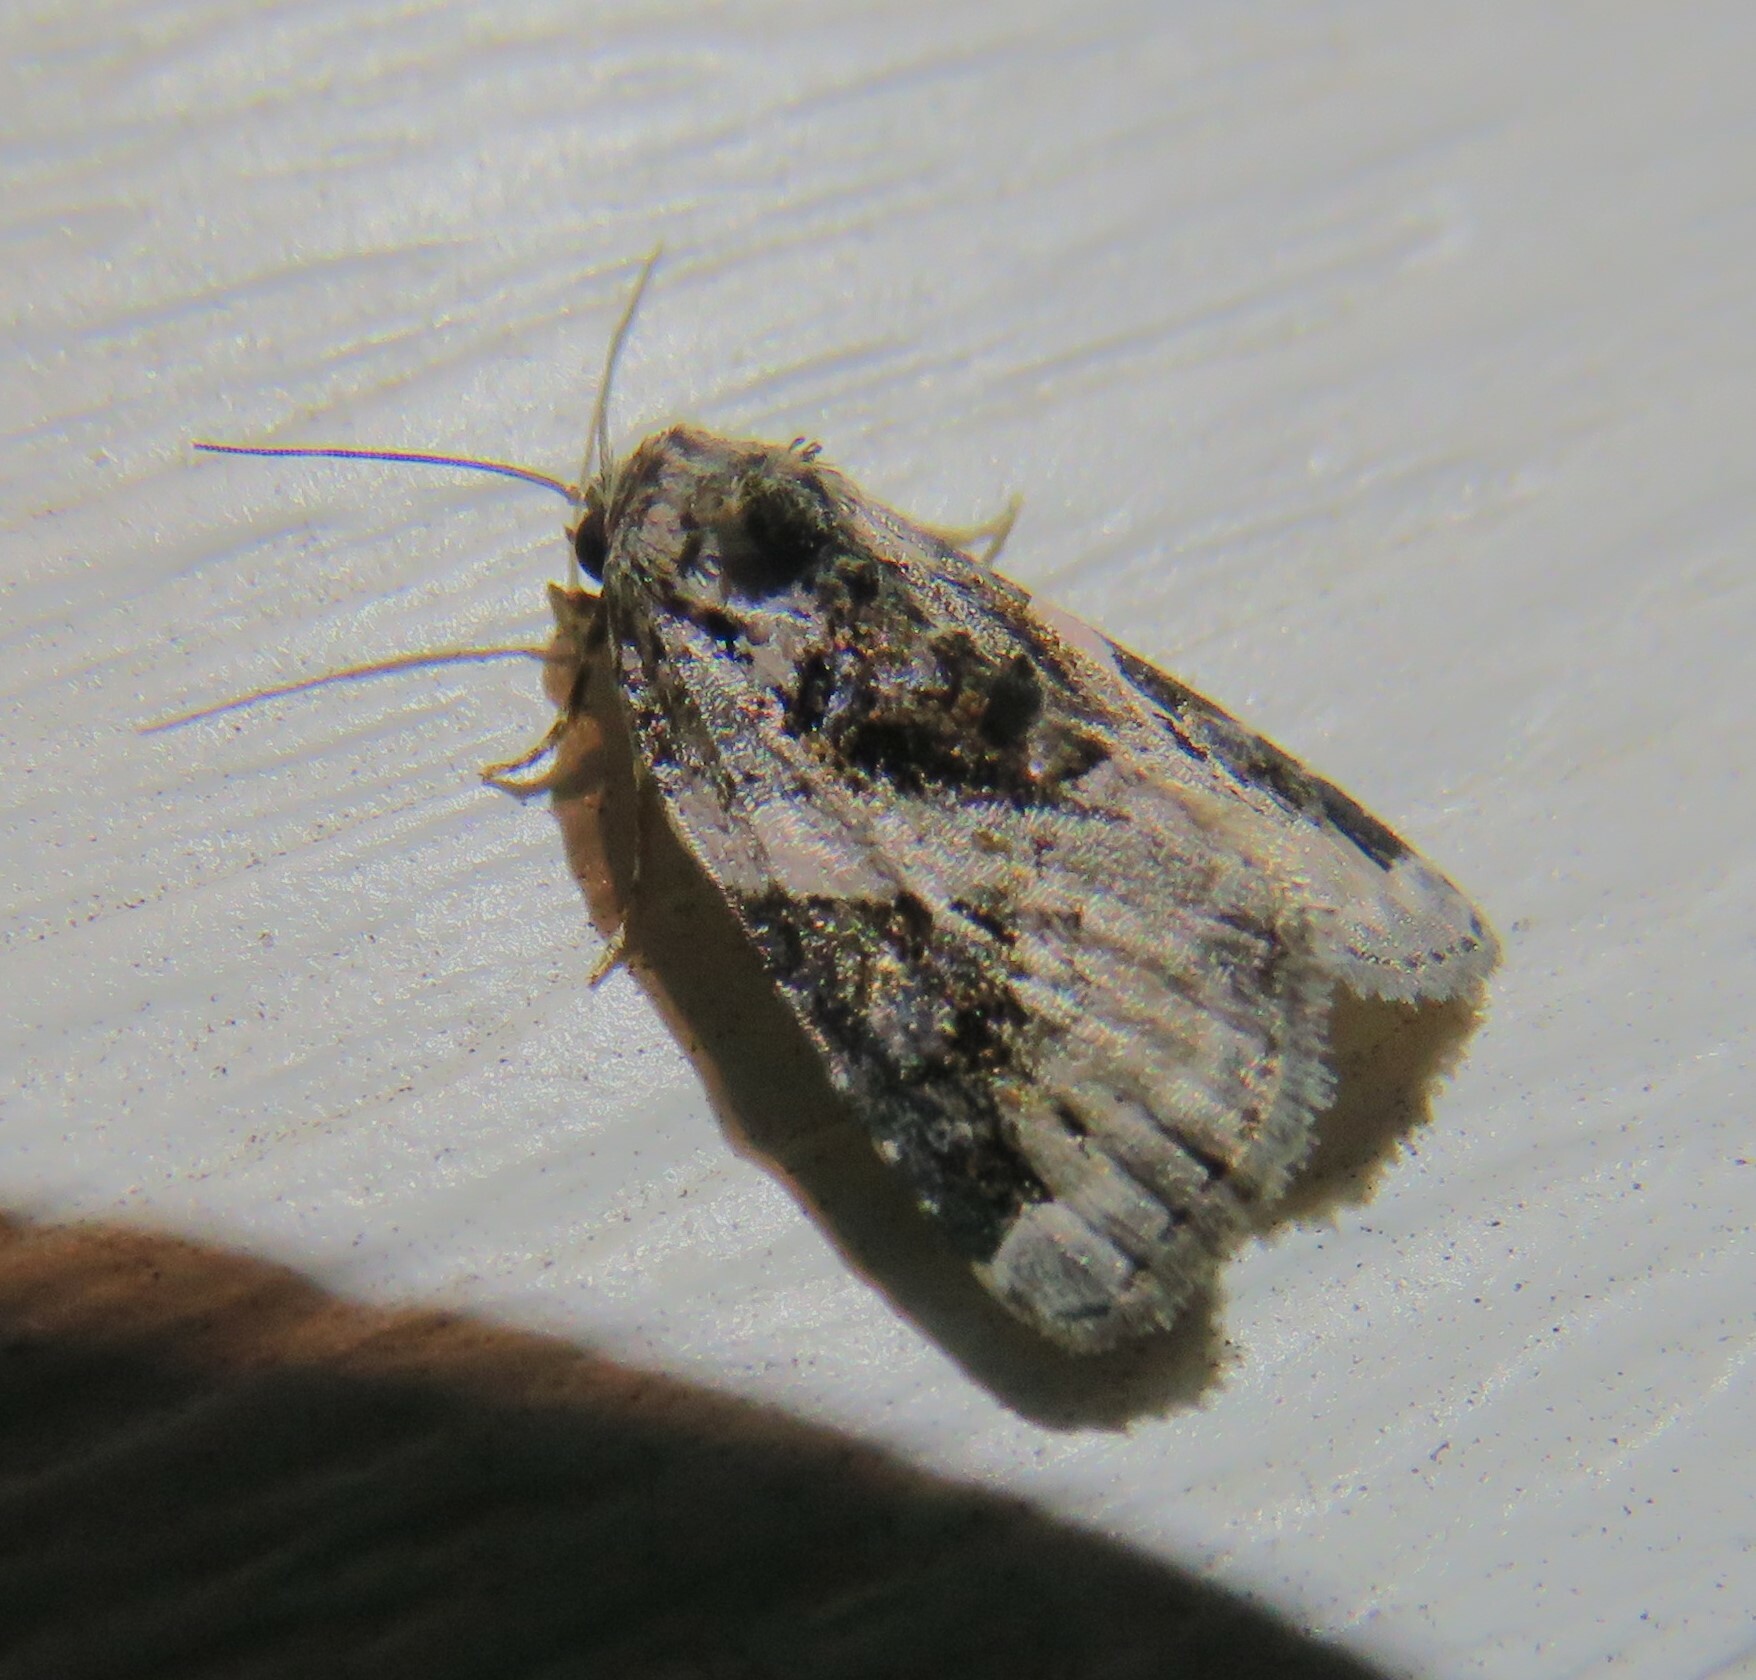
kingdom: Animalia
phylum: Arthropoda
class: Insecta
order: Lepidoptera
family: Noctuidae
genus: Pseudeustrotia
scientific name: Pseudeustrotia carneola
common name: Pink-barred lithacodia moth
